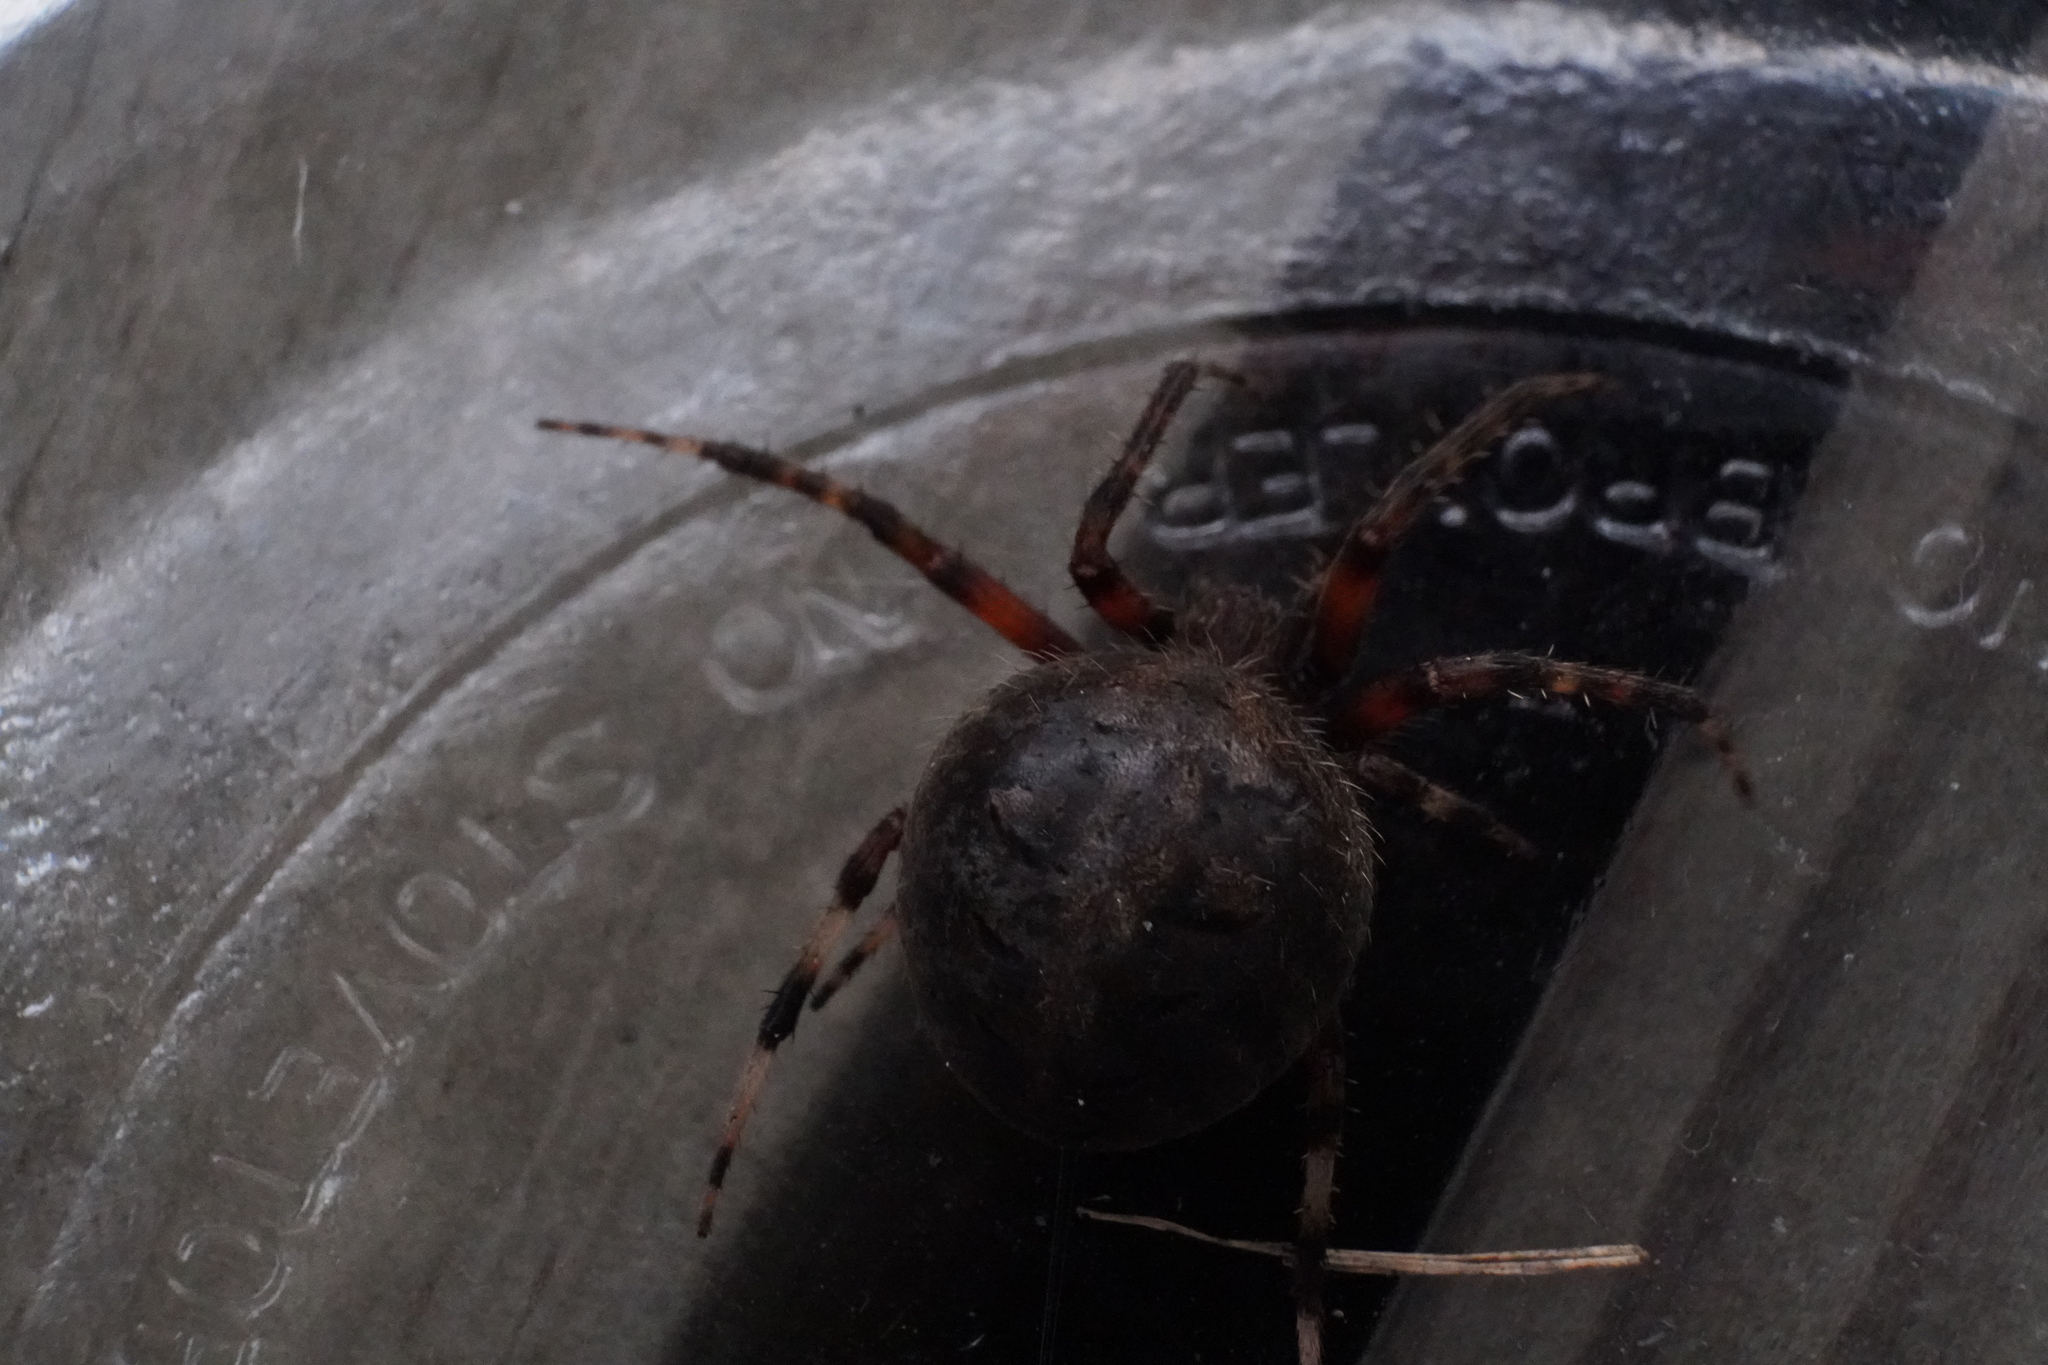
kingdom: Animalia
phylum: Arthropoda
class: Arachnida
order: Araneae
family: Araneidae
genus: Neoscona
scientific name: Neoscona crucifera
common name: Spotted orbweaver
